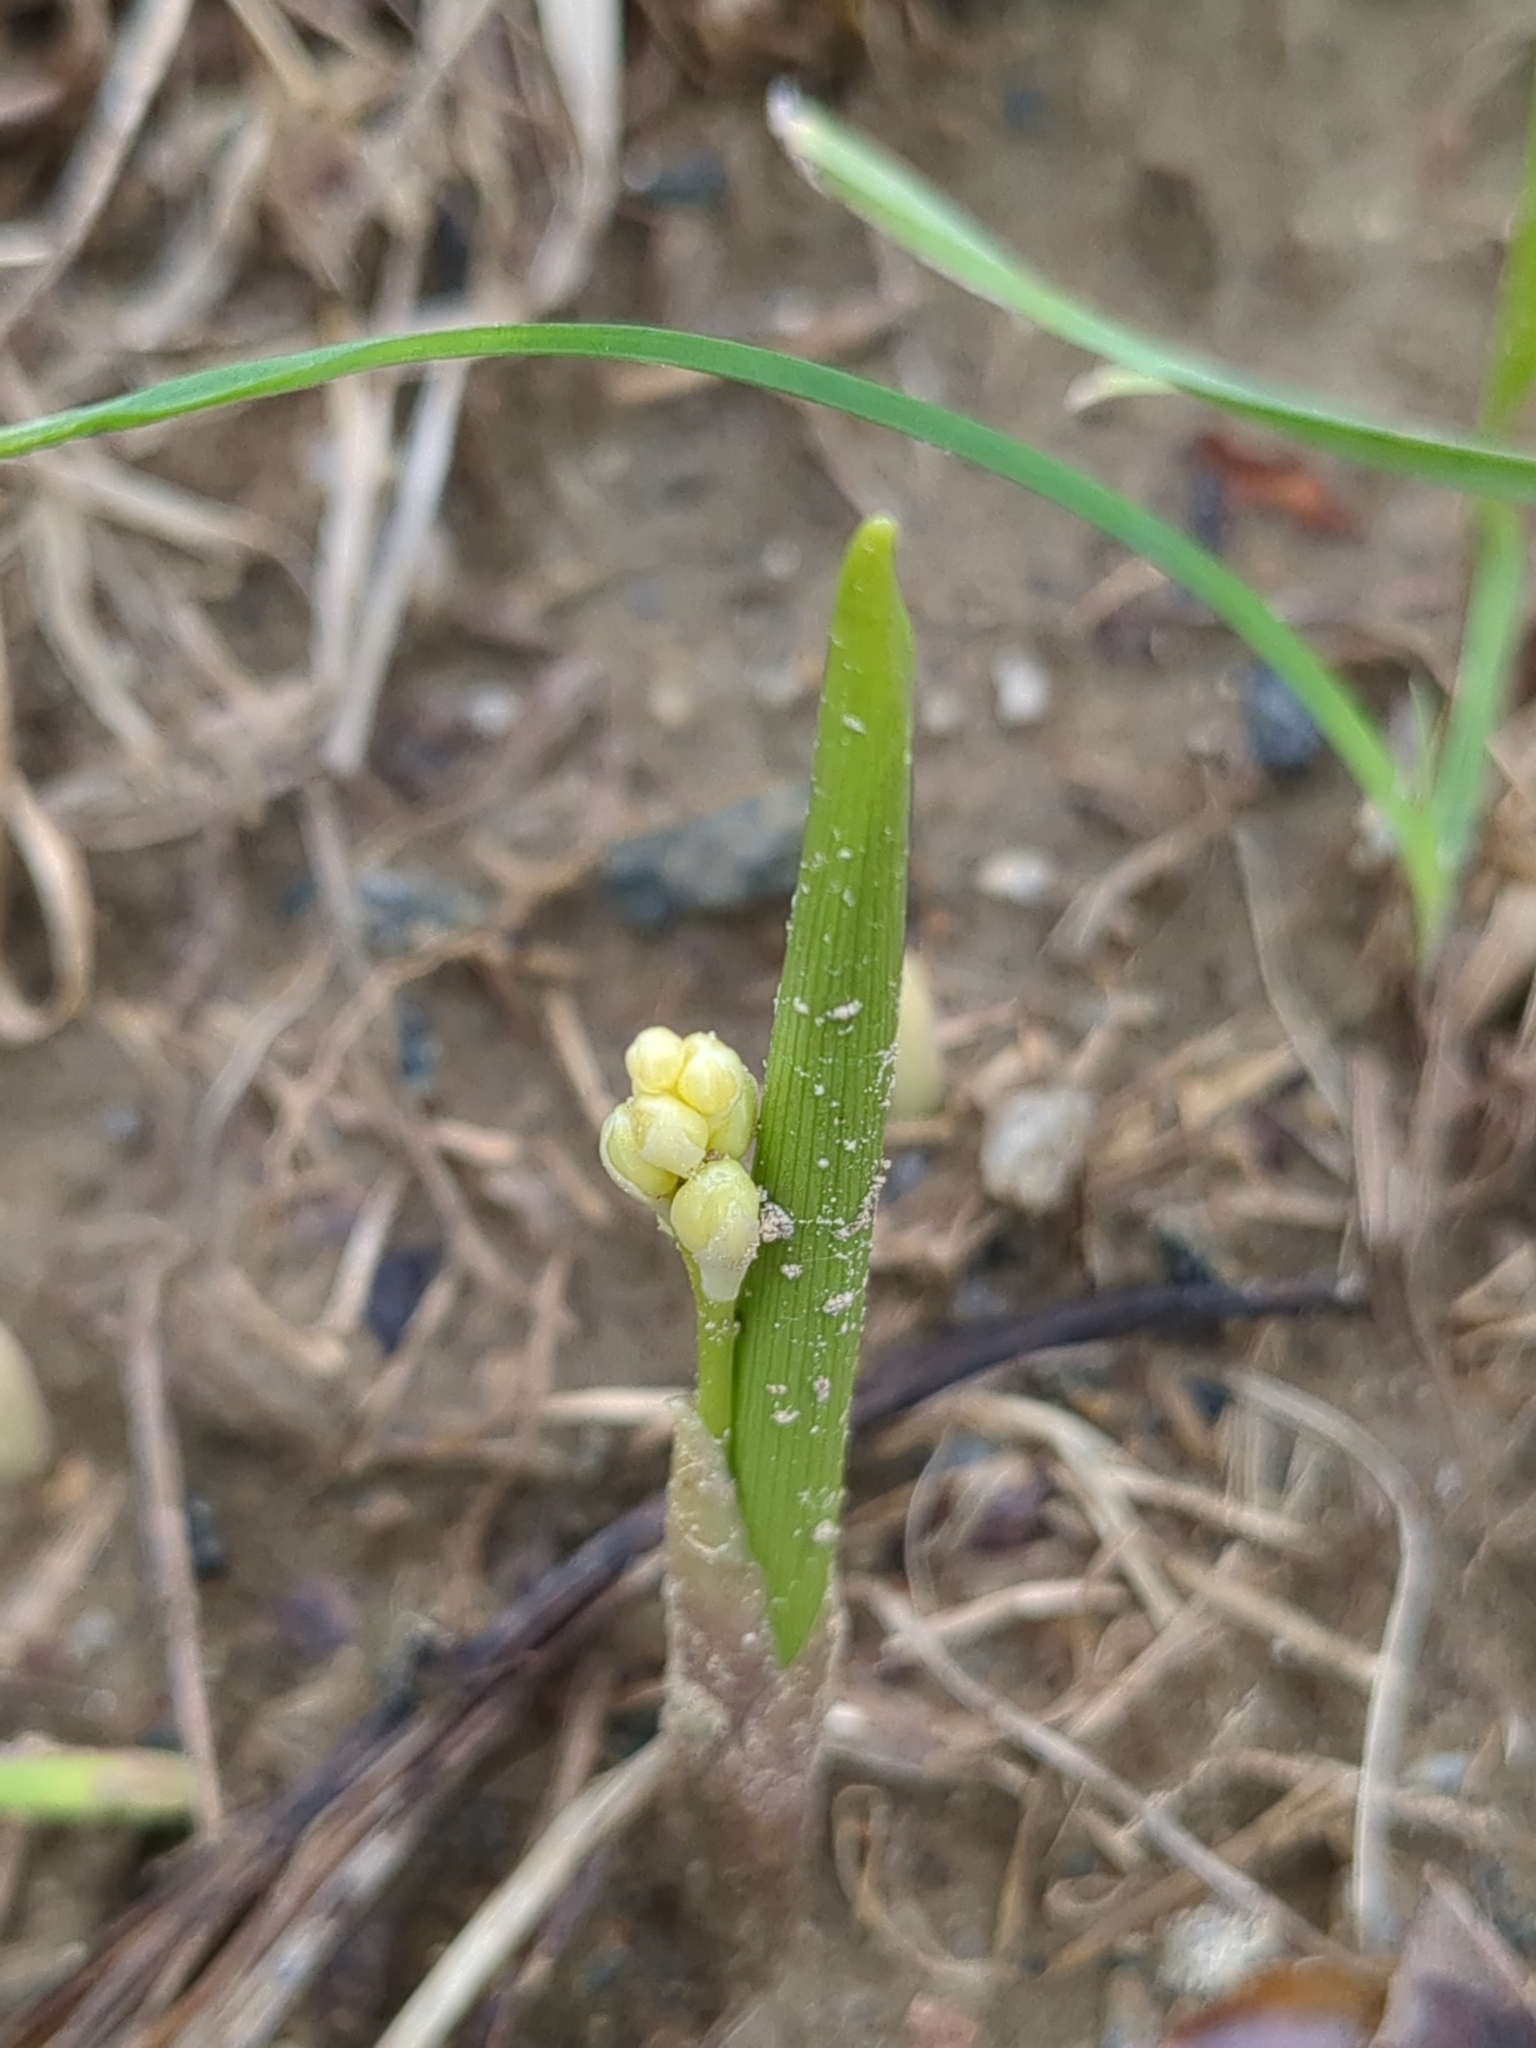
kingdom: Plantae
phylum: Tracheophyta
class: Liliopsida
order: Asparagales
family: Asparagaceae
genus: Convallaria
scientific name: Convallaria majalis
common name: Lily-of-the-valley
